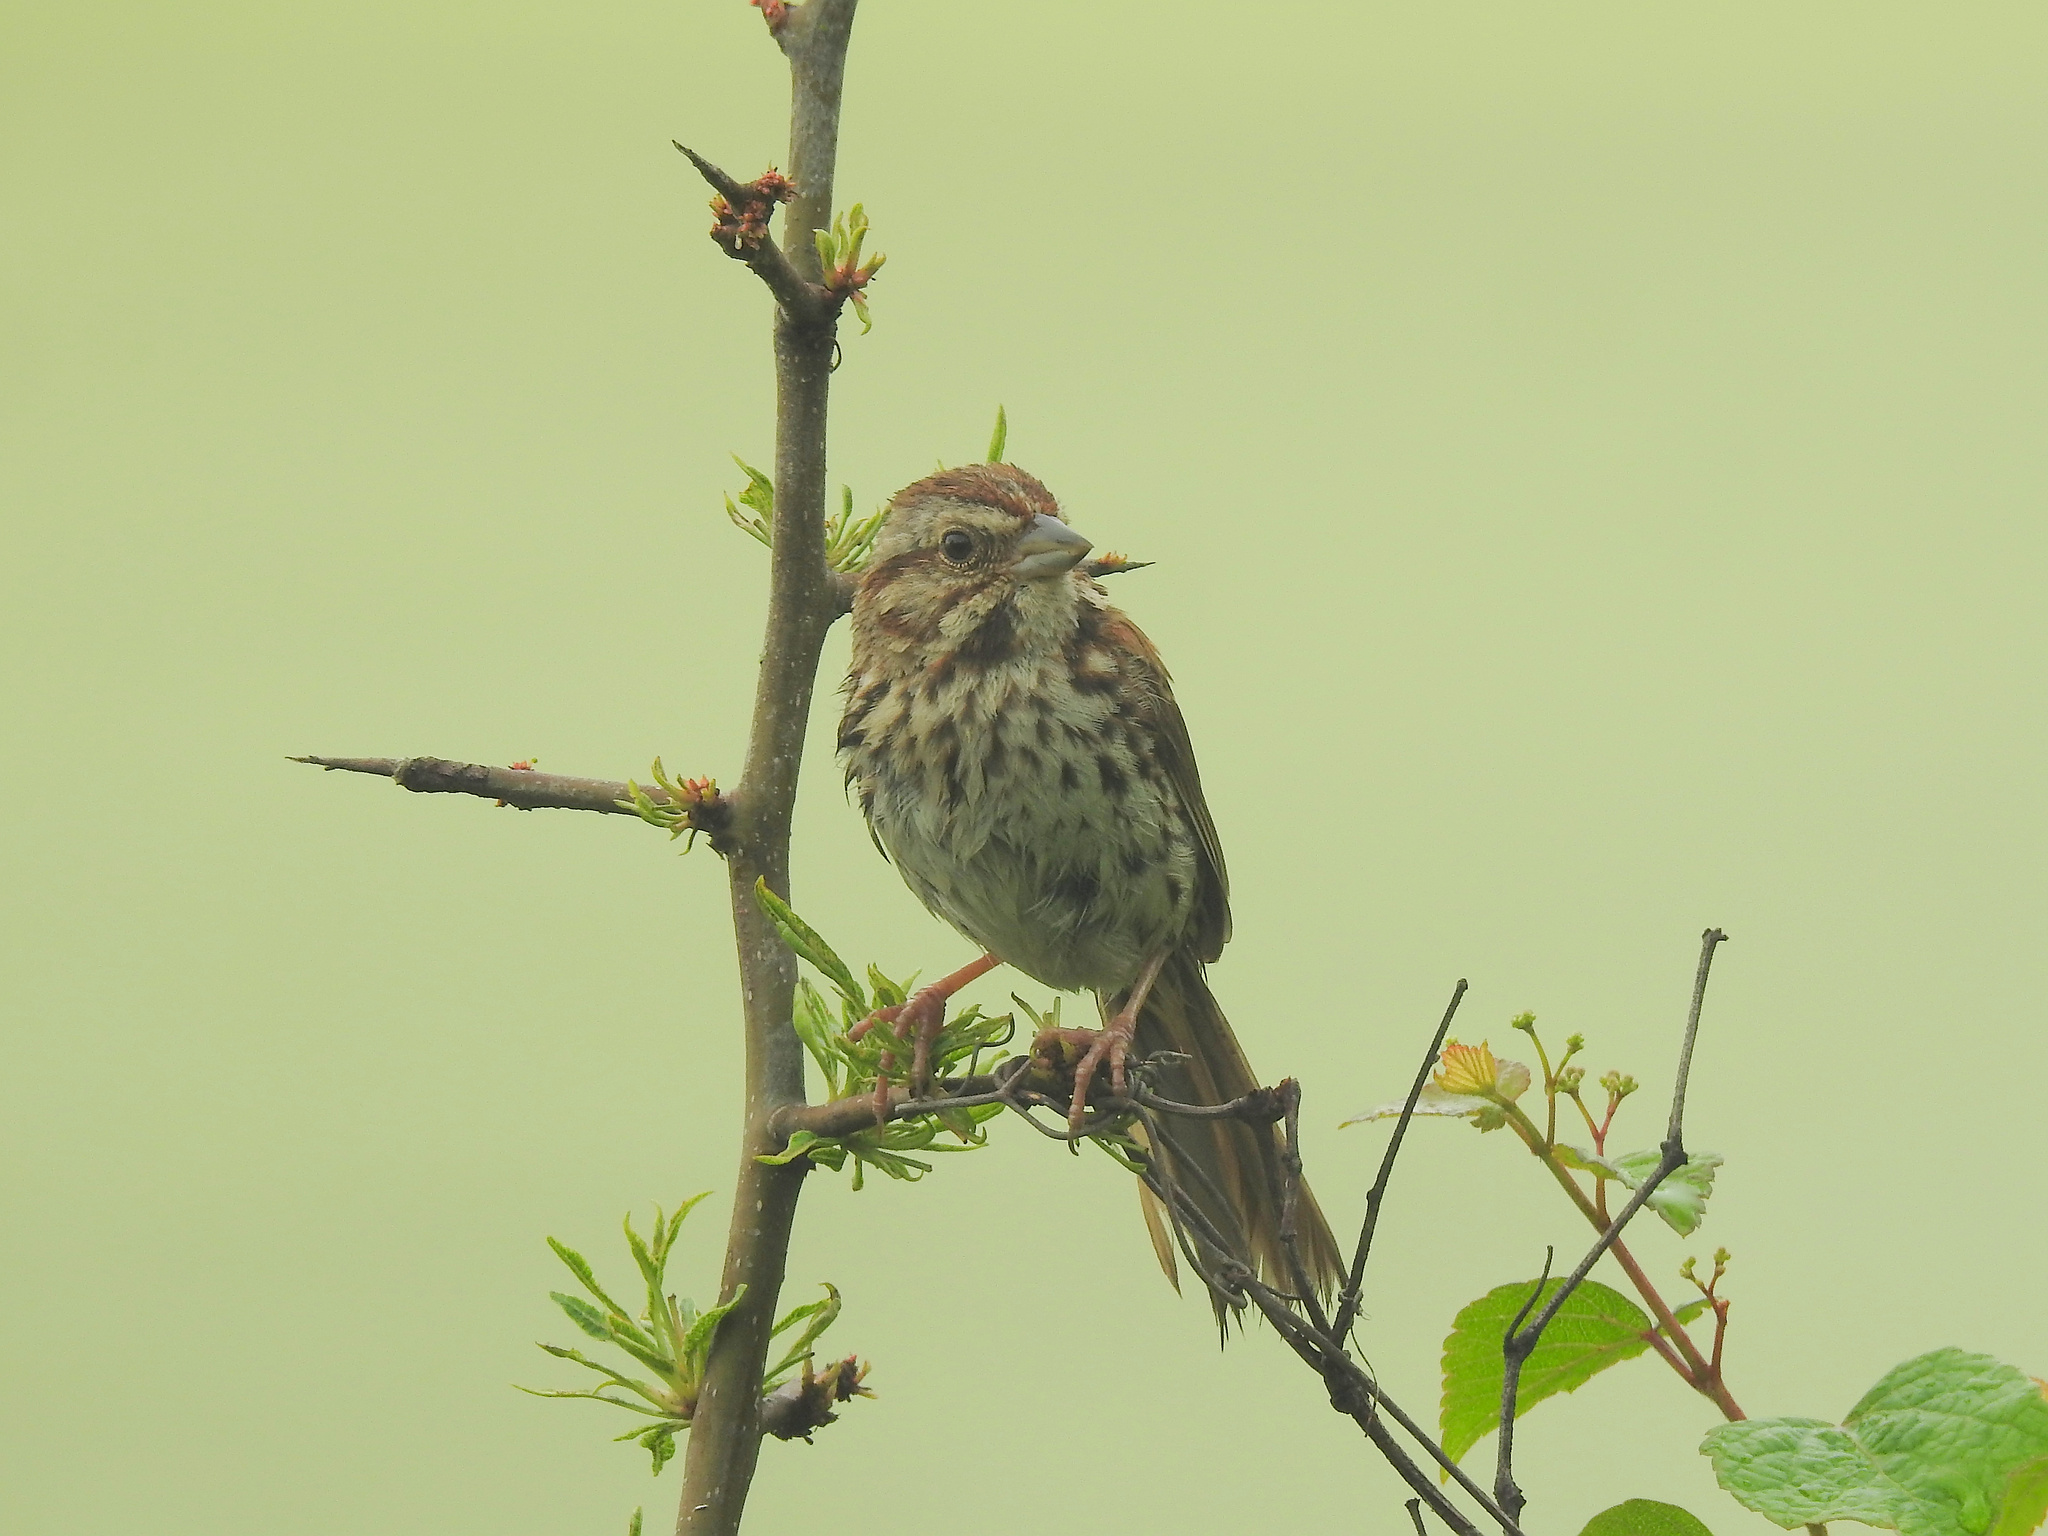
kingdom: Animalia
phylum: Chordata
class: Aves
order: Passeriformes
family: Passerellidae
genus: Melospiza
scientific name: Melospiza melodia
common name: Song sparrow
